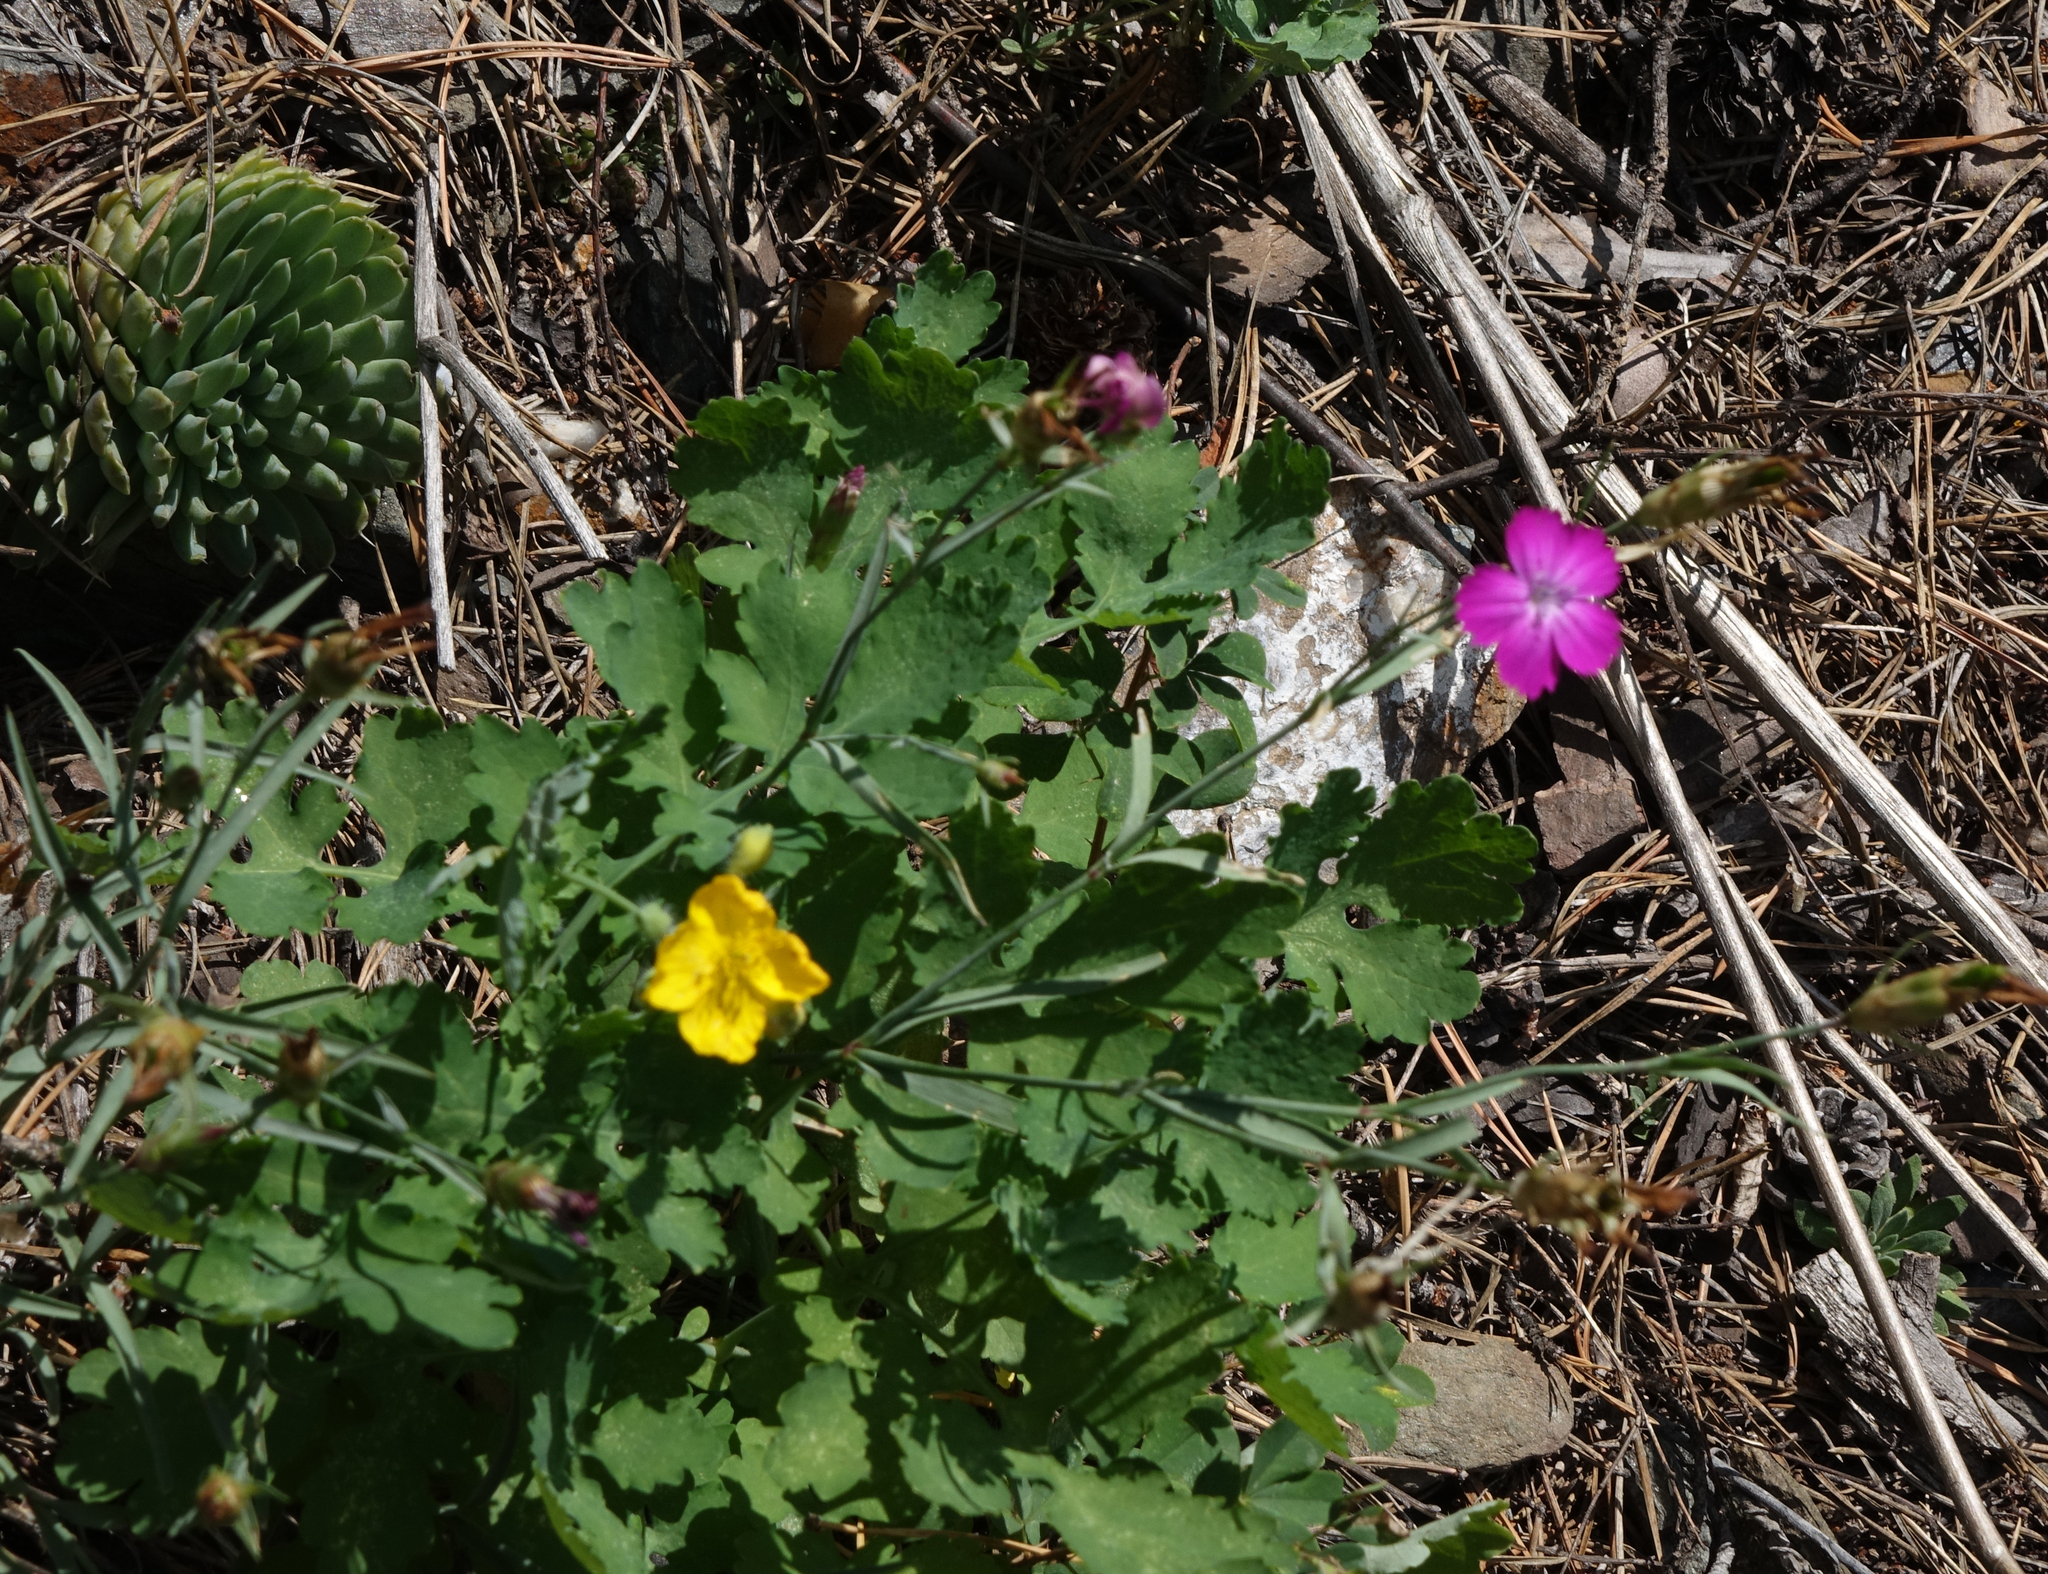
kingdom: Plantae
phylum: Tracheophyta
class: Magnoliopsida
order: Ranunculales
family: Papaveraceae
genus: Chelidonium
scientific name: Chelidonium majus
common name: Greater celandine
